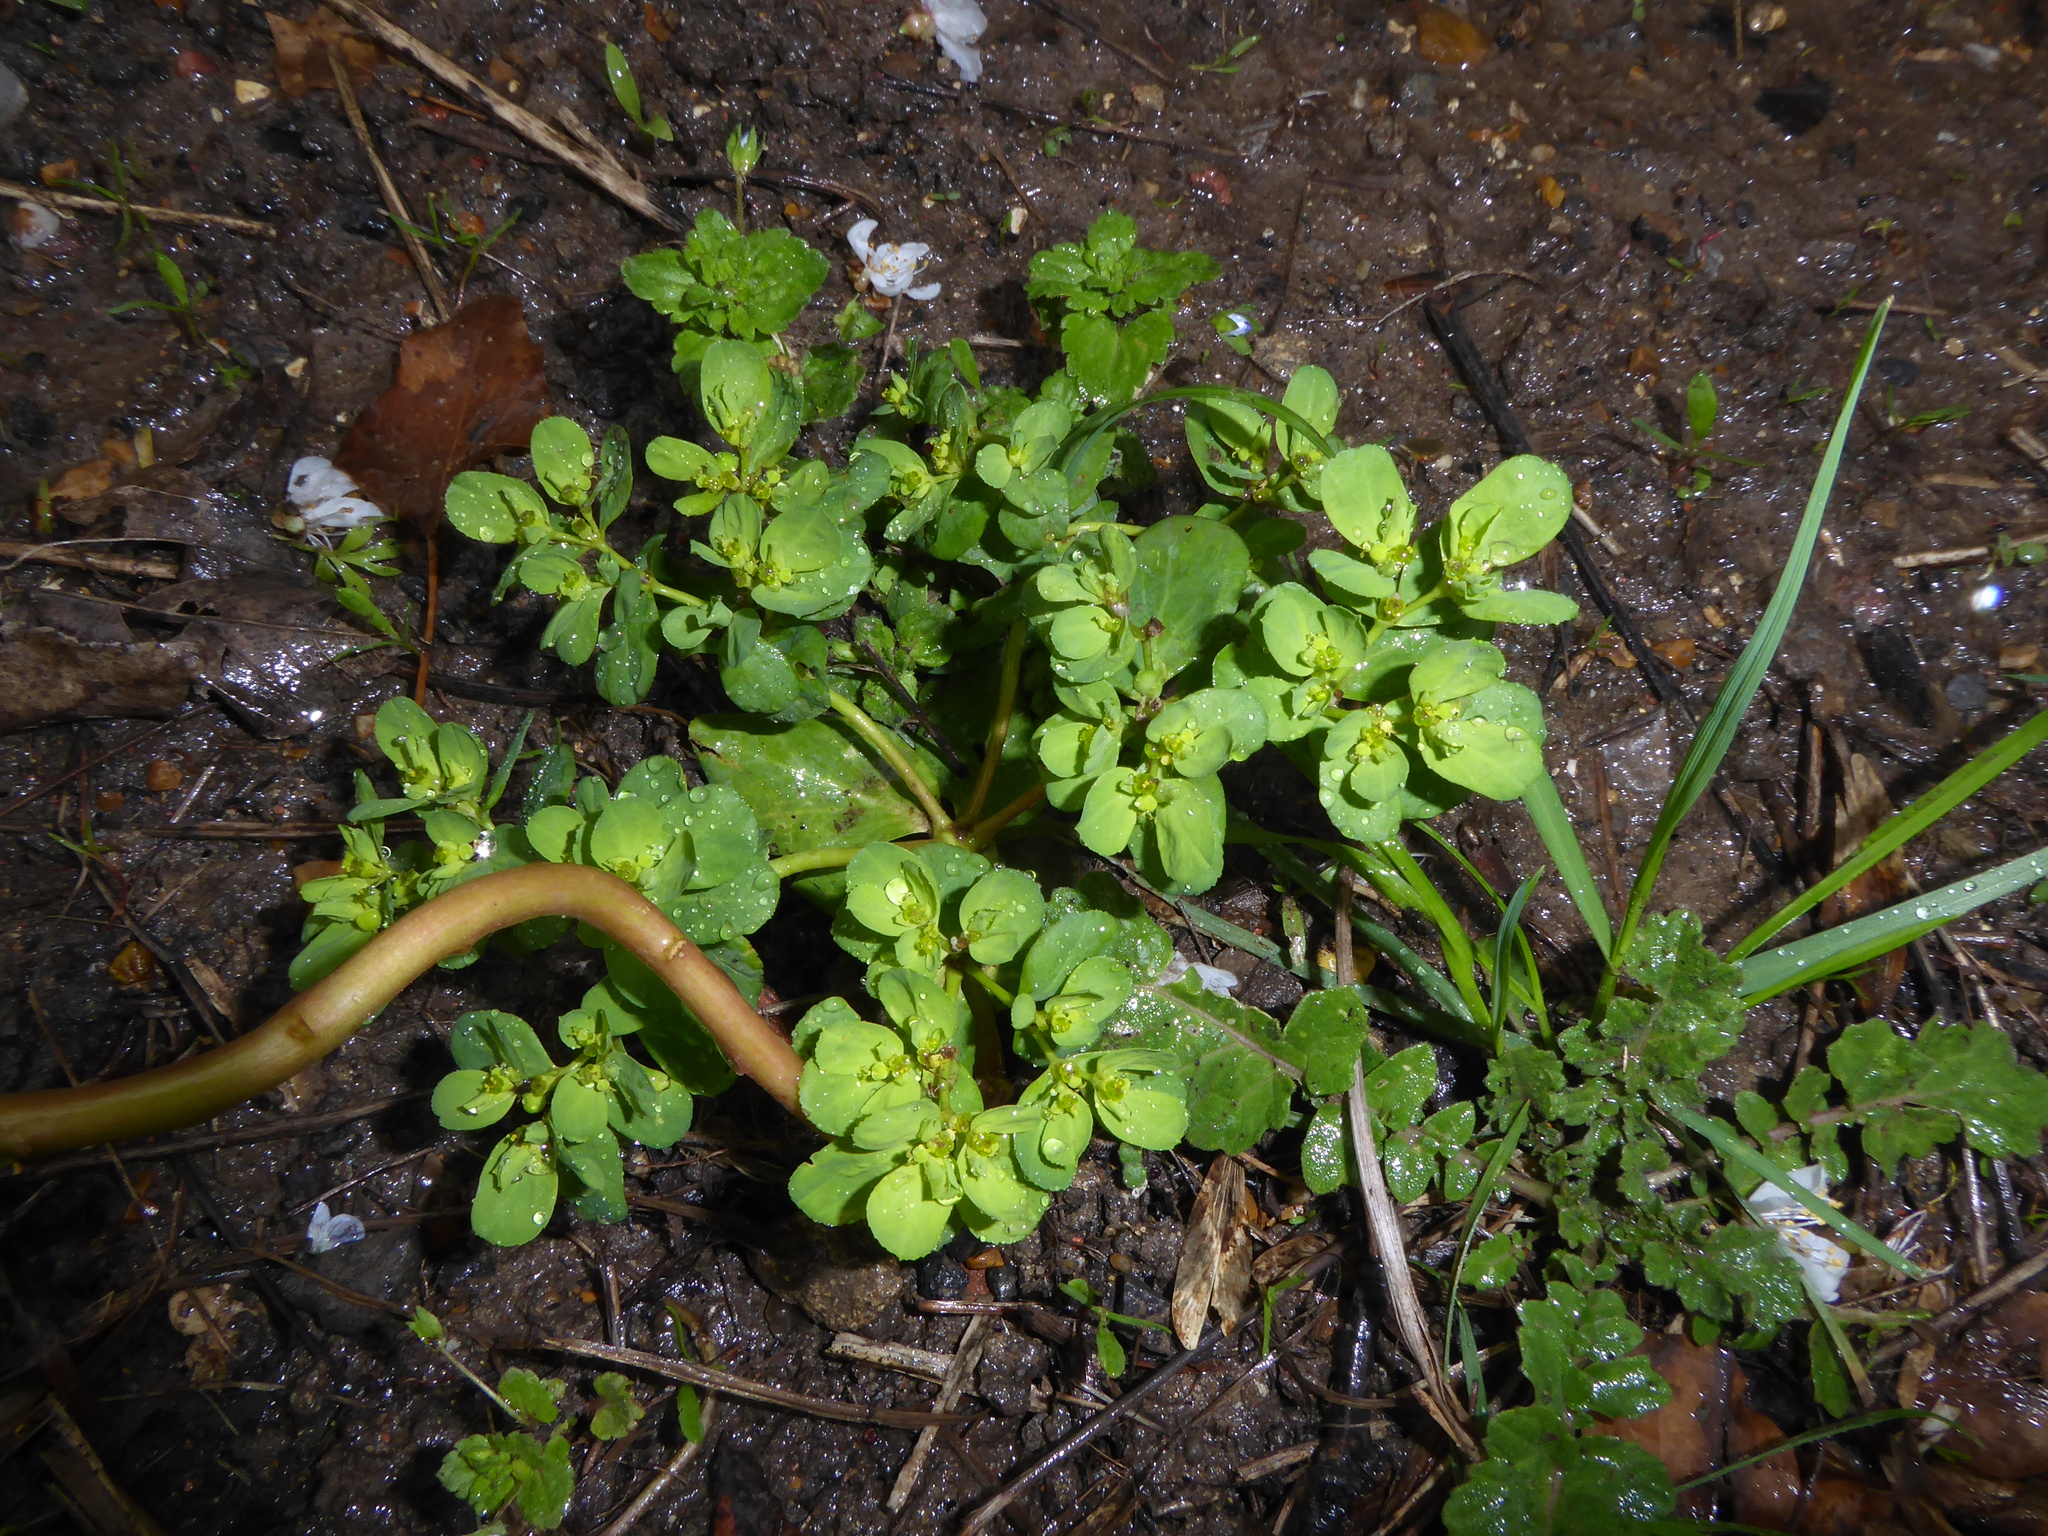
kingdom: Plantae
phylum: Tracheophyta
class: Magnoliopsida
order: Malpighiales
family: Euphorbiaceae
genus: Euphorbia
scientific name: Euphorbia helioscopia
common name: Sun spurge
